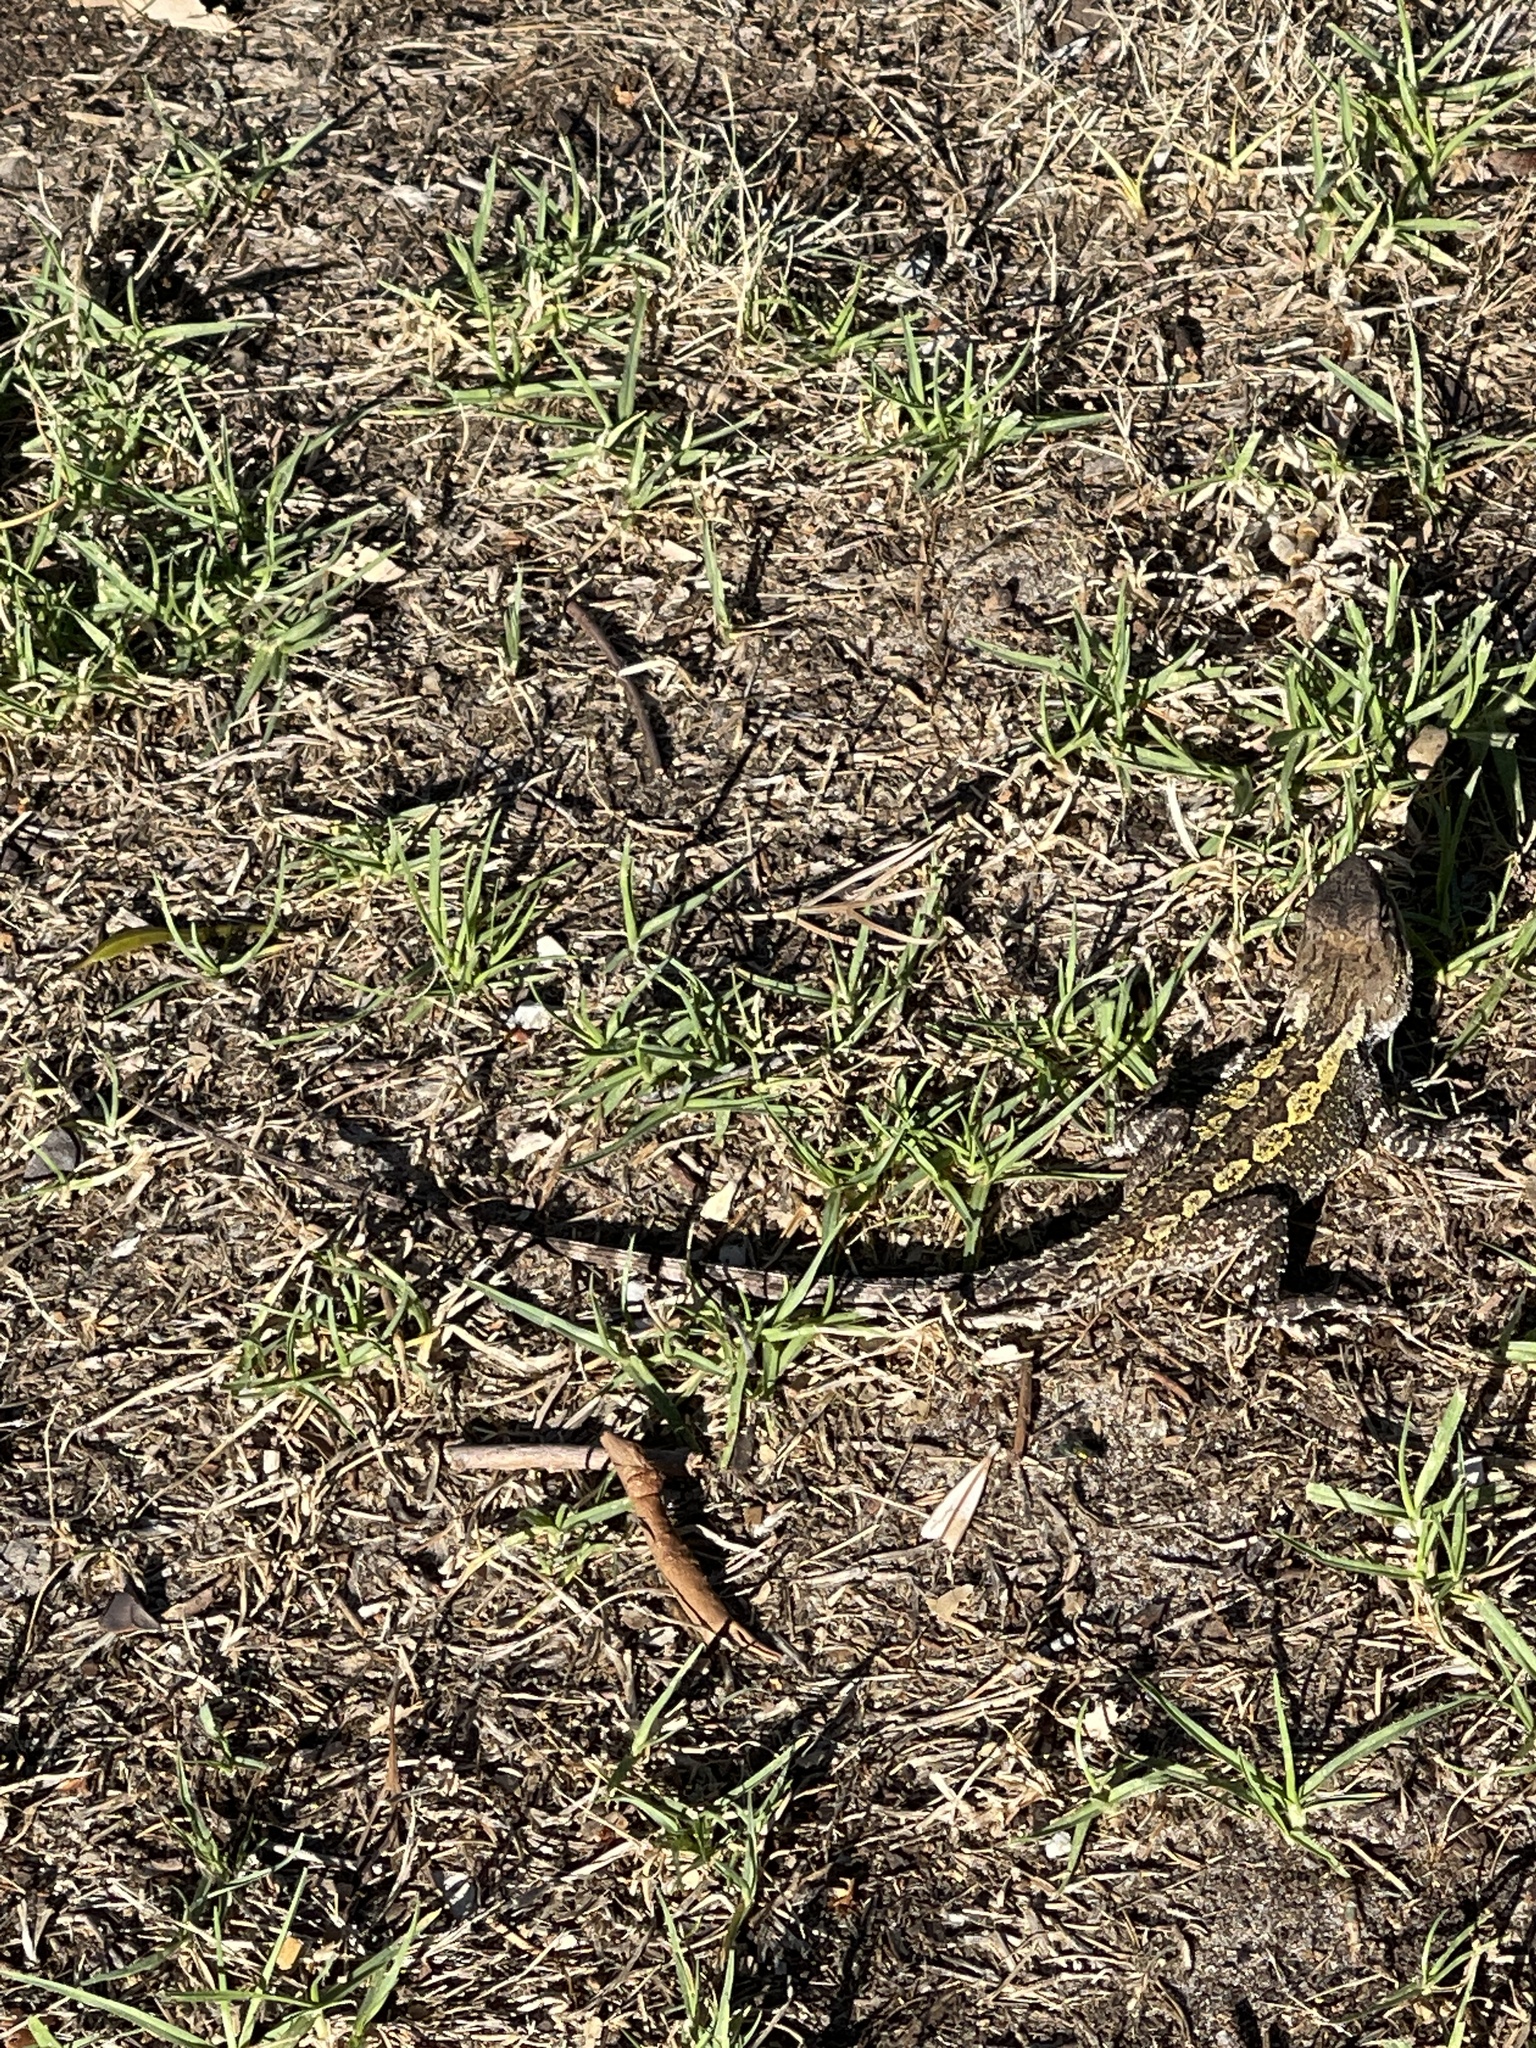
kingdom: Animalia
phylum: Chordata
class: Squamata
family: Agamidae
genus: Amphibolurus
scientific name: Amphibolurus muricatus
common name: Jacky lizard
